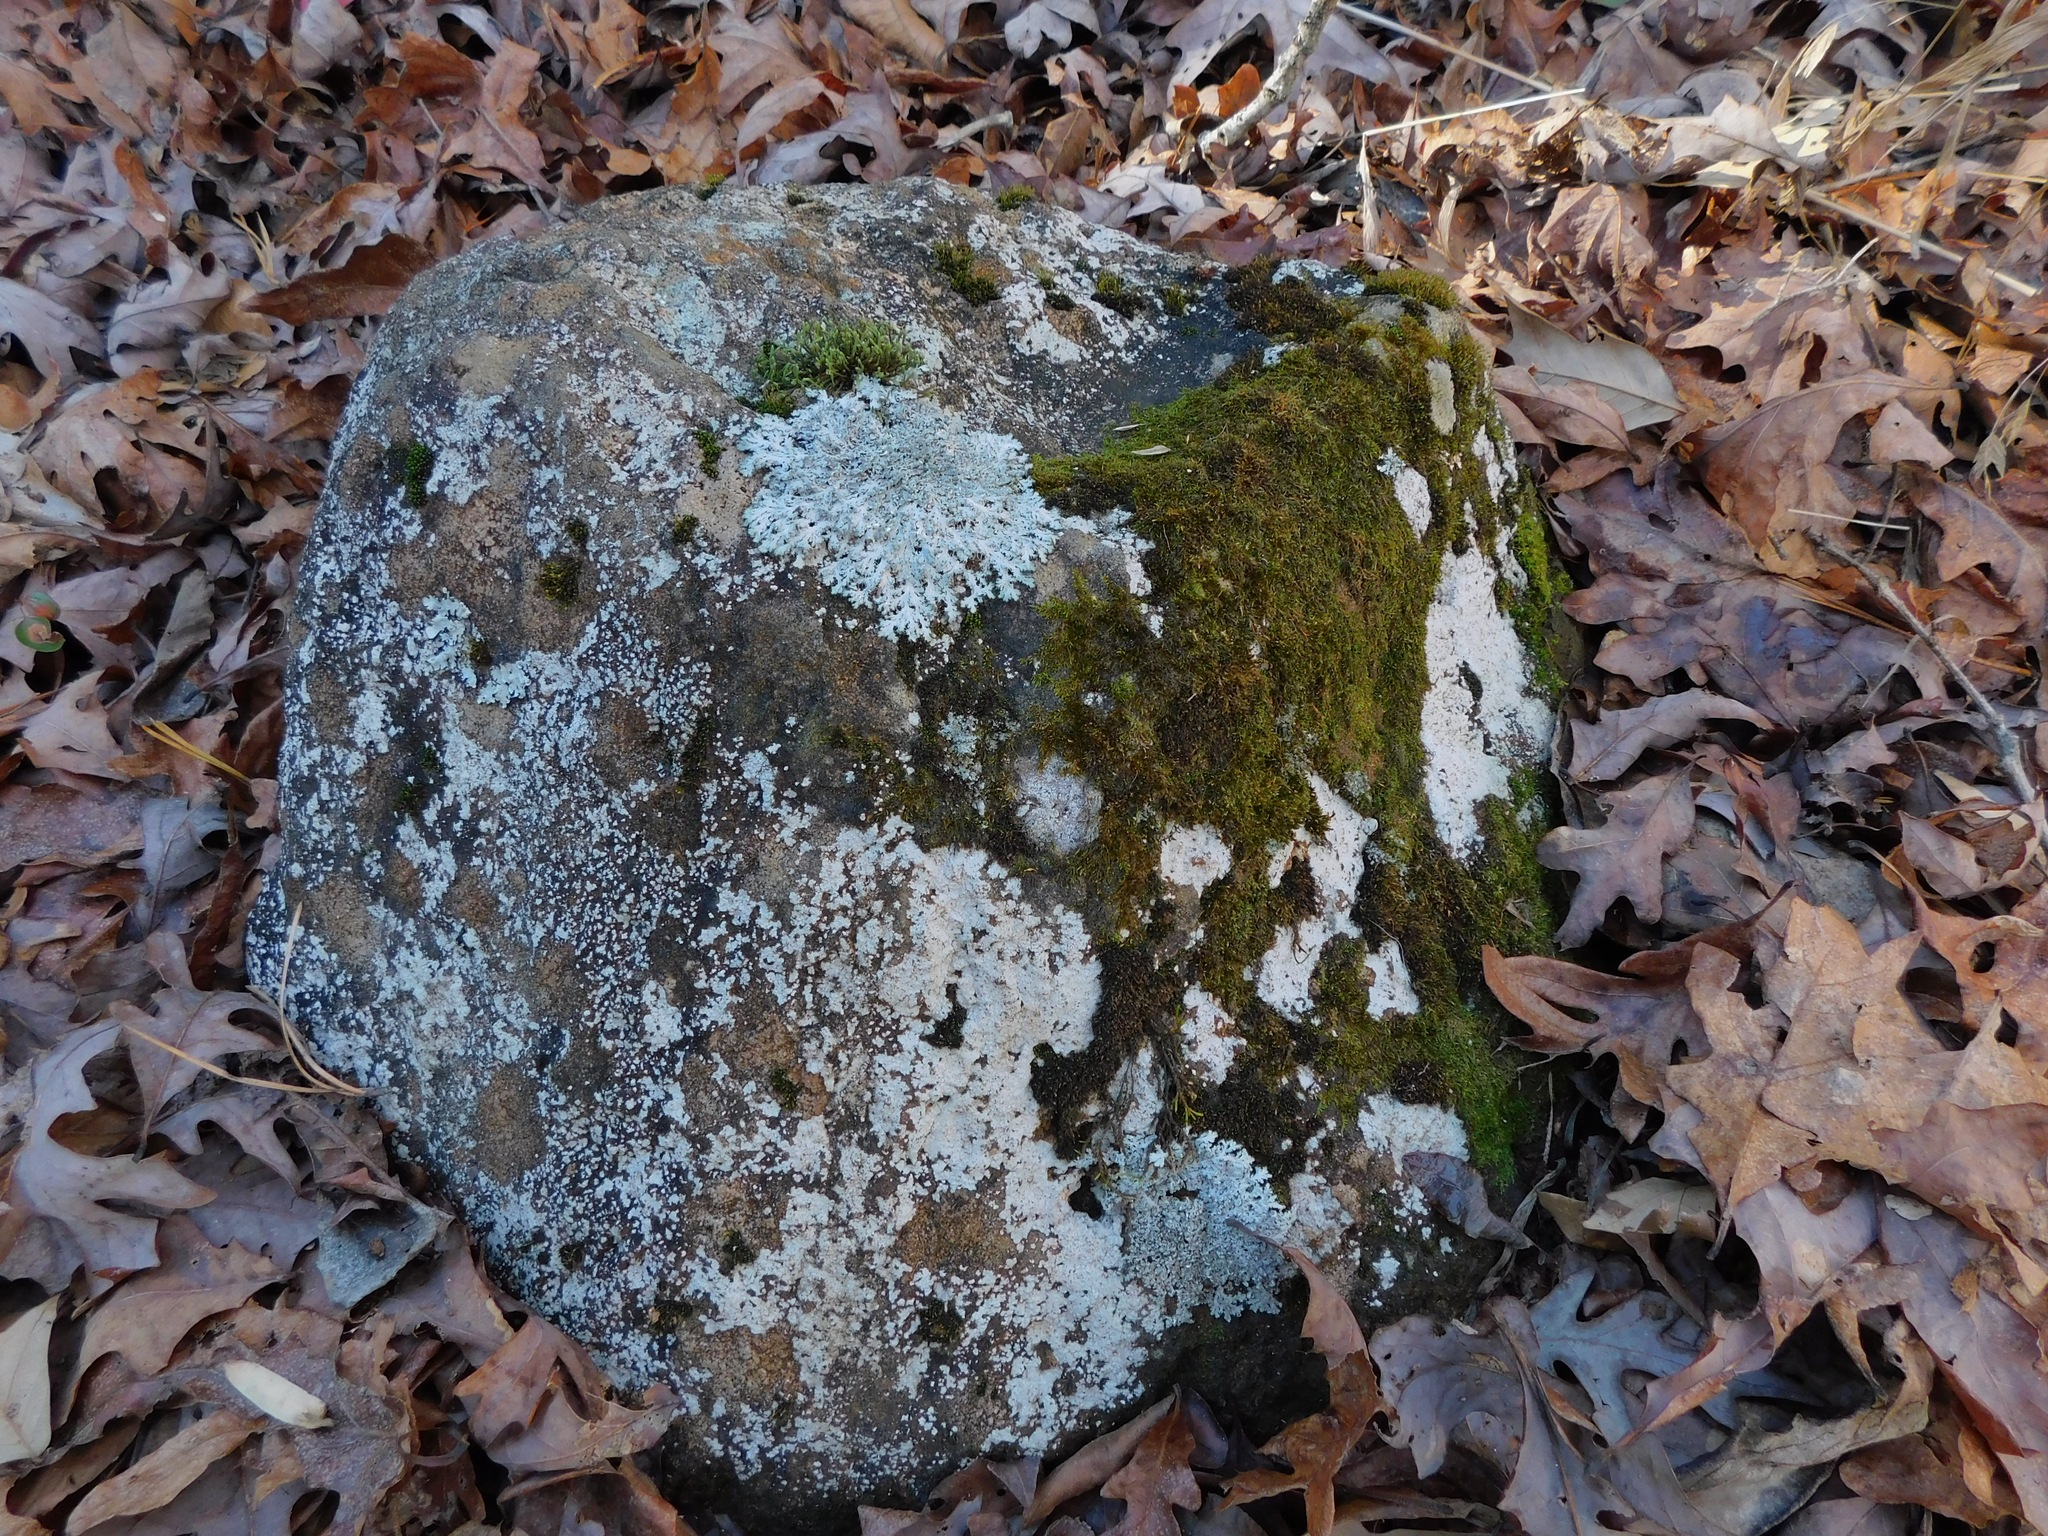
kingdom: Fungi
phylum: Ascomycota
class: Lecanoromycetes
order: Acarosporales
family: Acarosporaceae
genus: Acarospora
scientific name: Acarospora fuscata
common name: Brown cobblestone lichen
